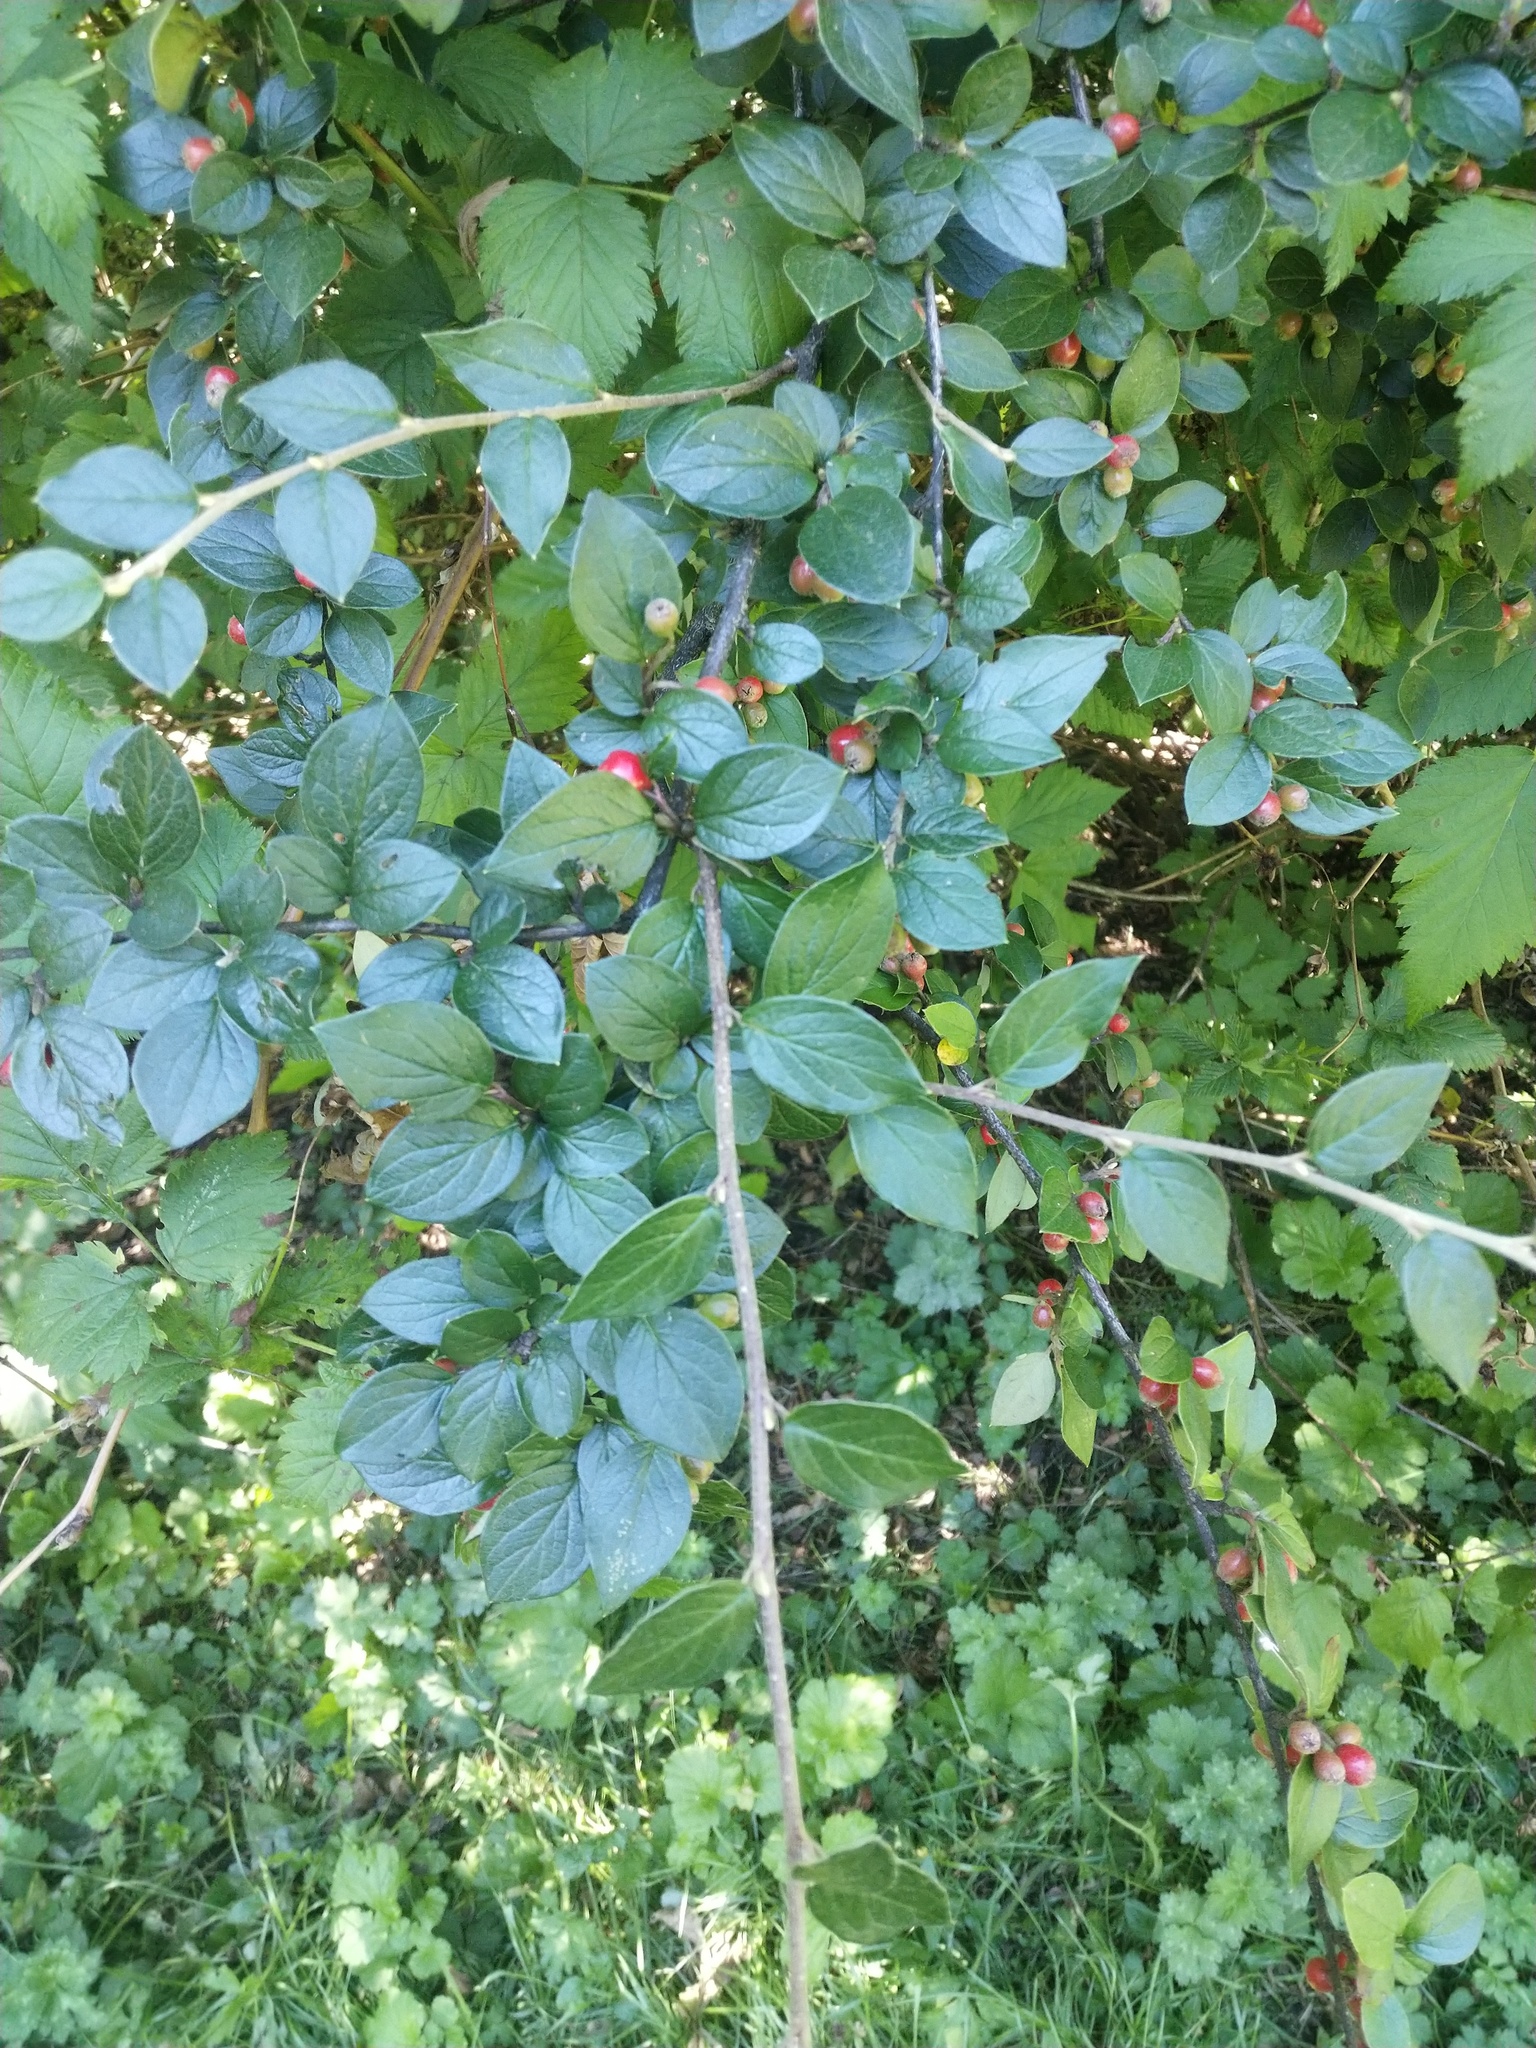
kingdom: Plantae
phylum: Tracheophyta
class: Magnoliopsida
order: Rosales
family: Rosaceae
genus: Cotoneaster
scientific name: Cotoneaster dielsianus
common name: Diels's cotoneaster
